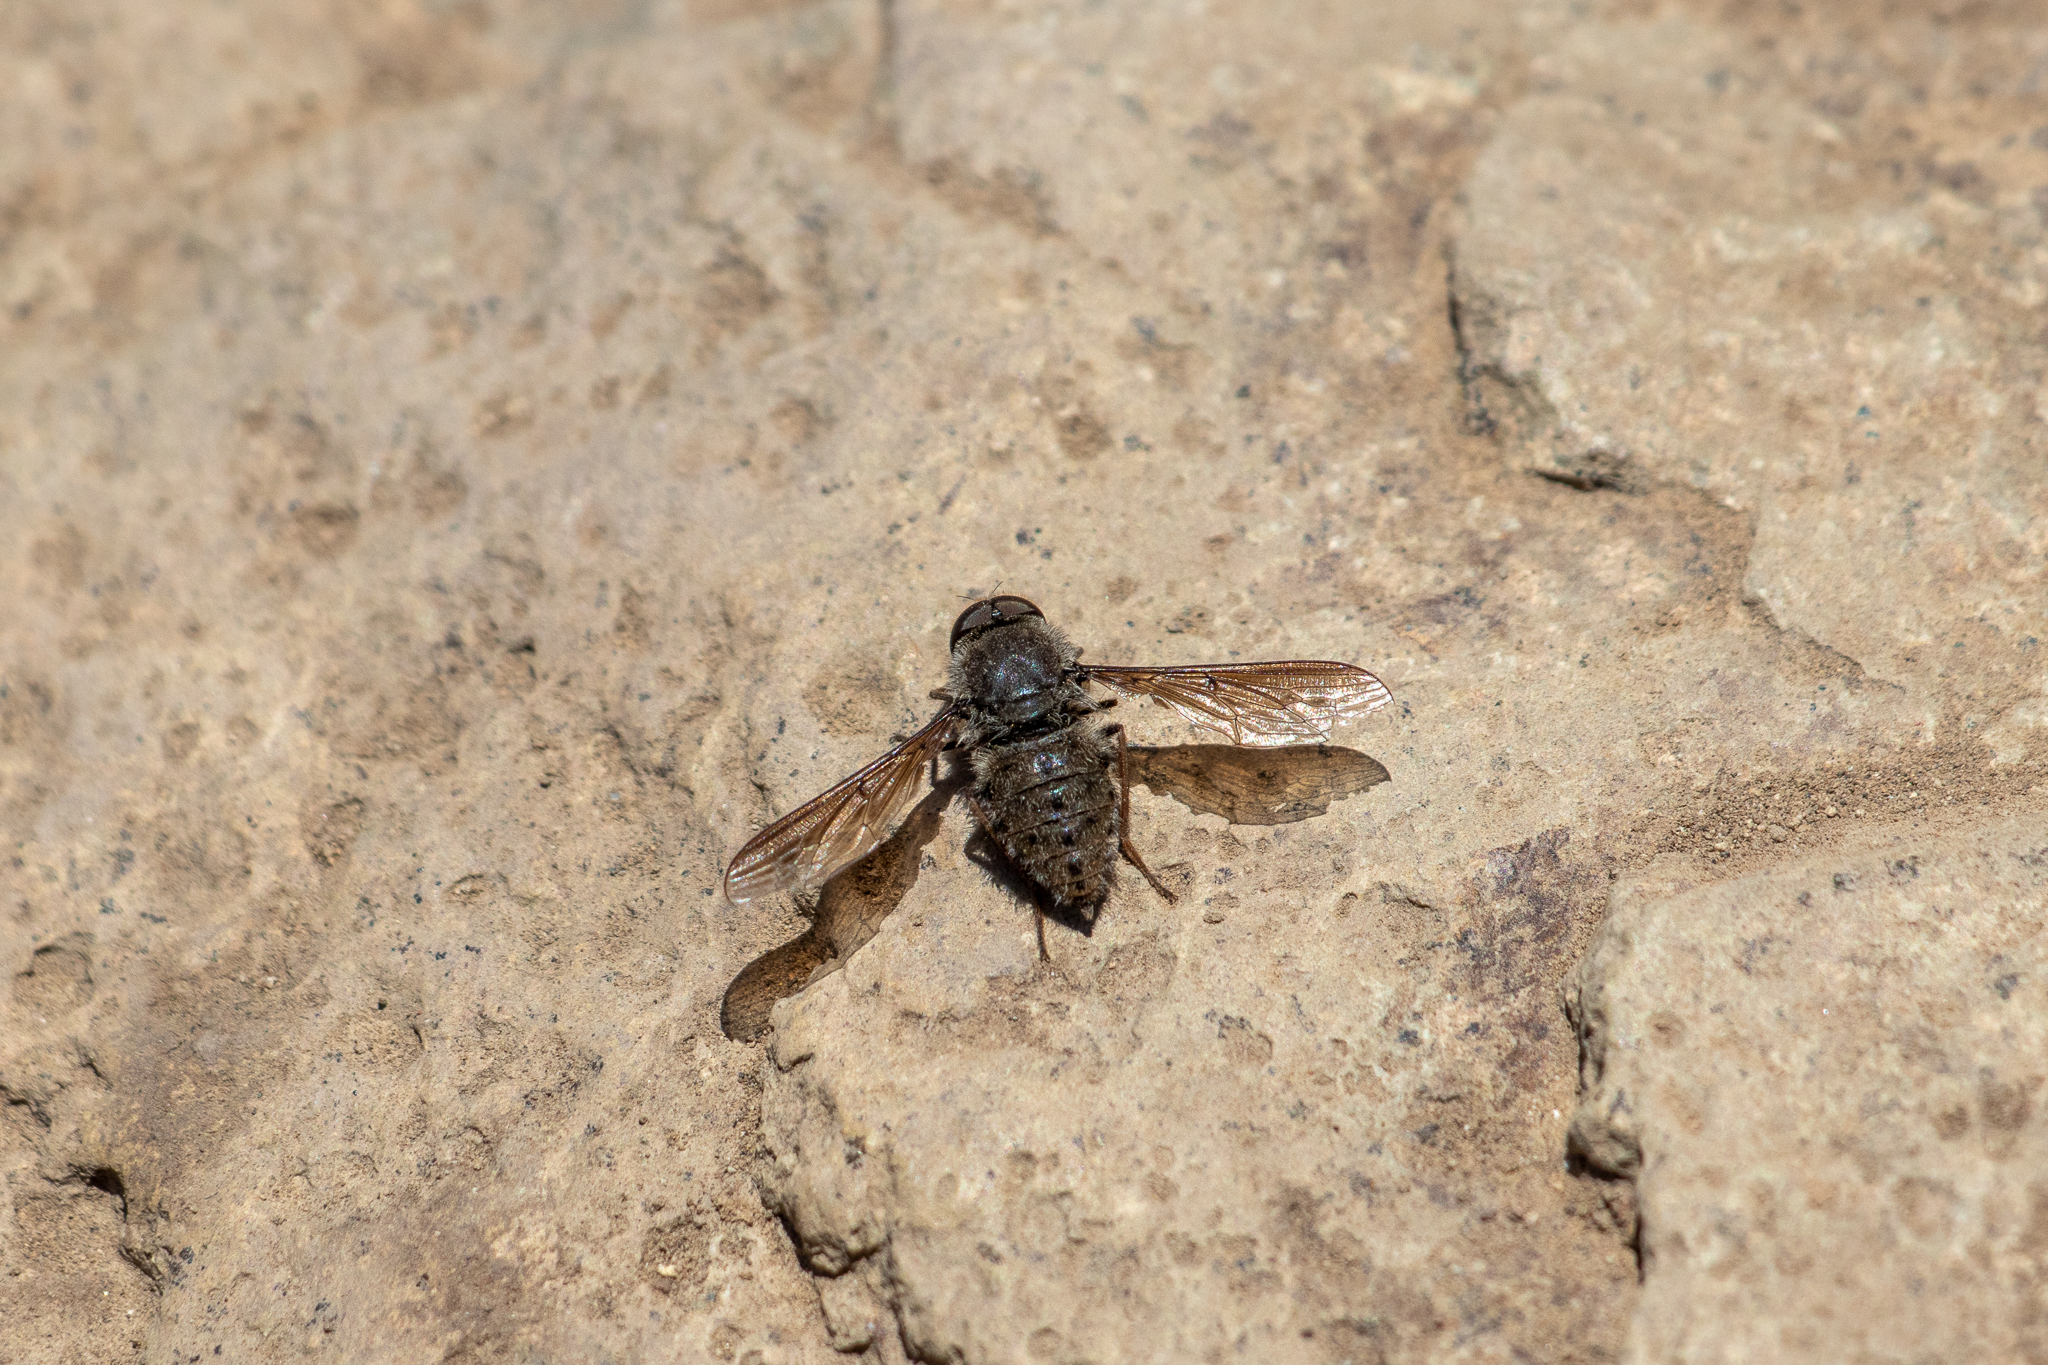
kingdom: Animalia
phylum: Arthropoda
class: Insecta
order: Diptera
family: Nemestrinidae
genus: Hyrmophlaeba
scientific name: Hyrmophlaeba
